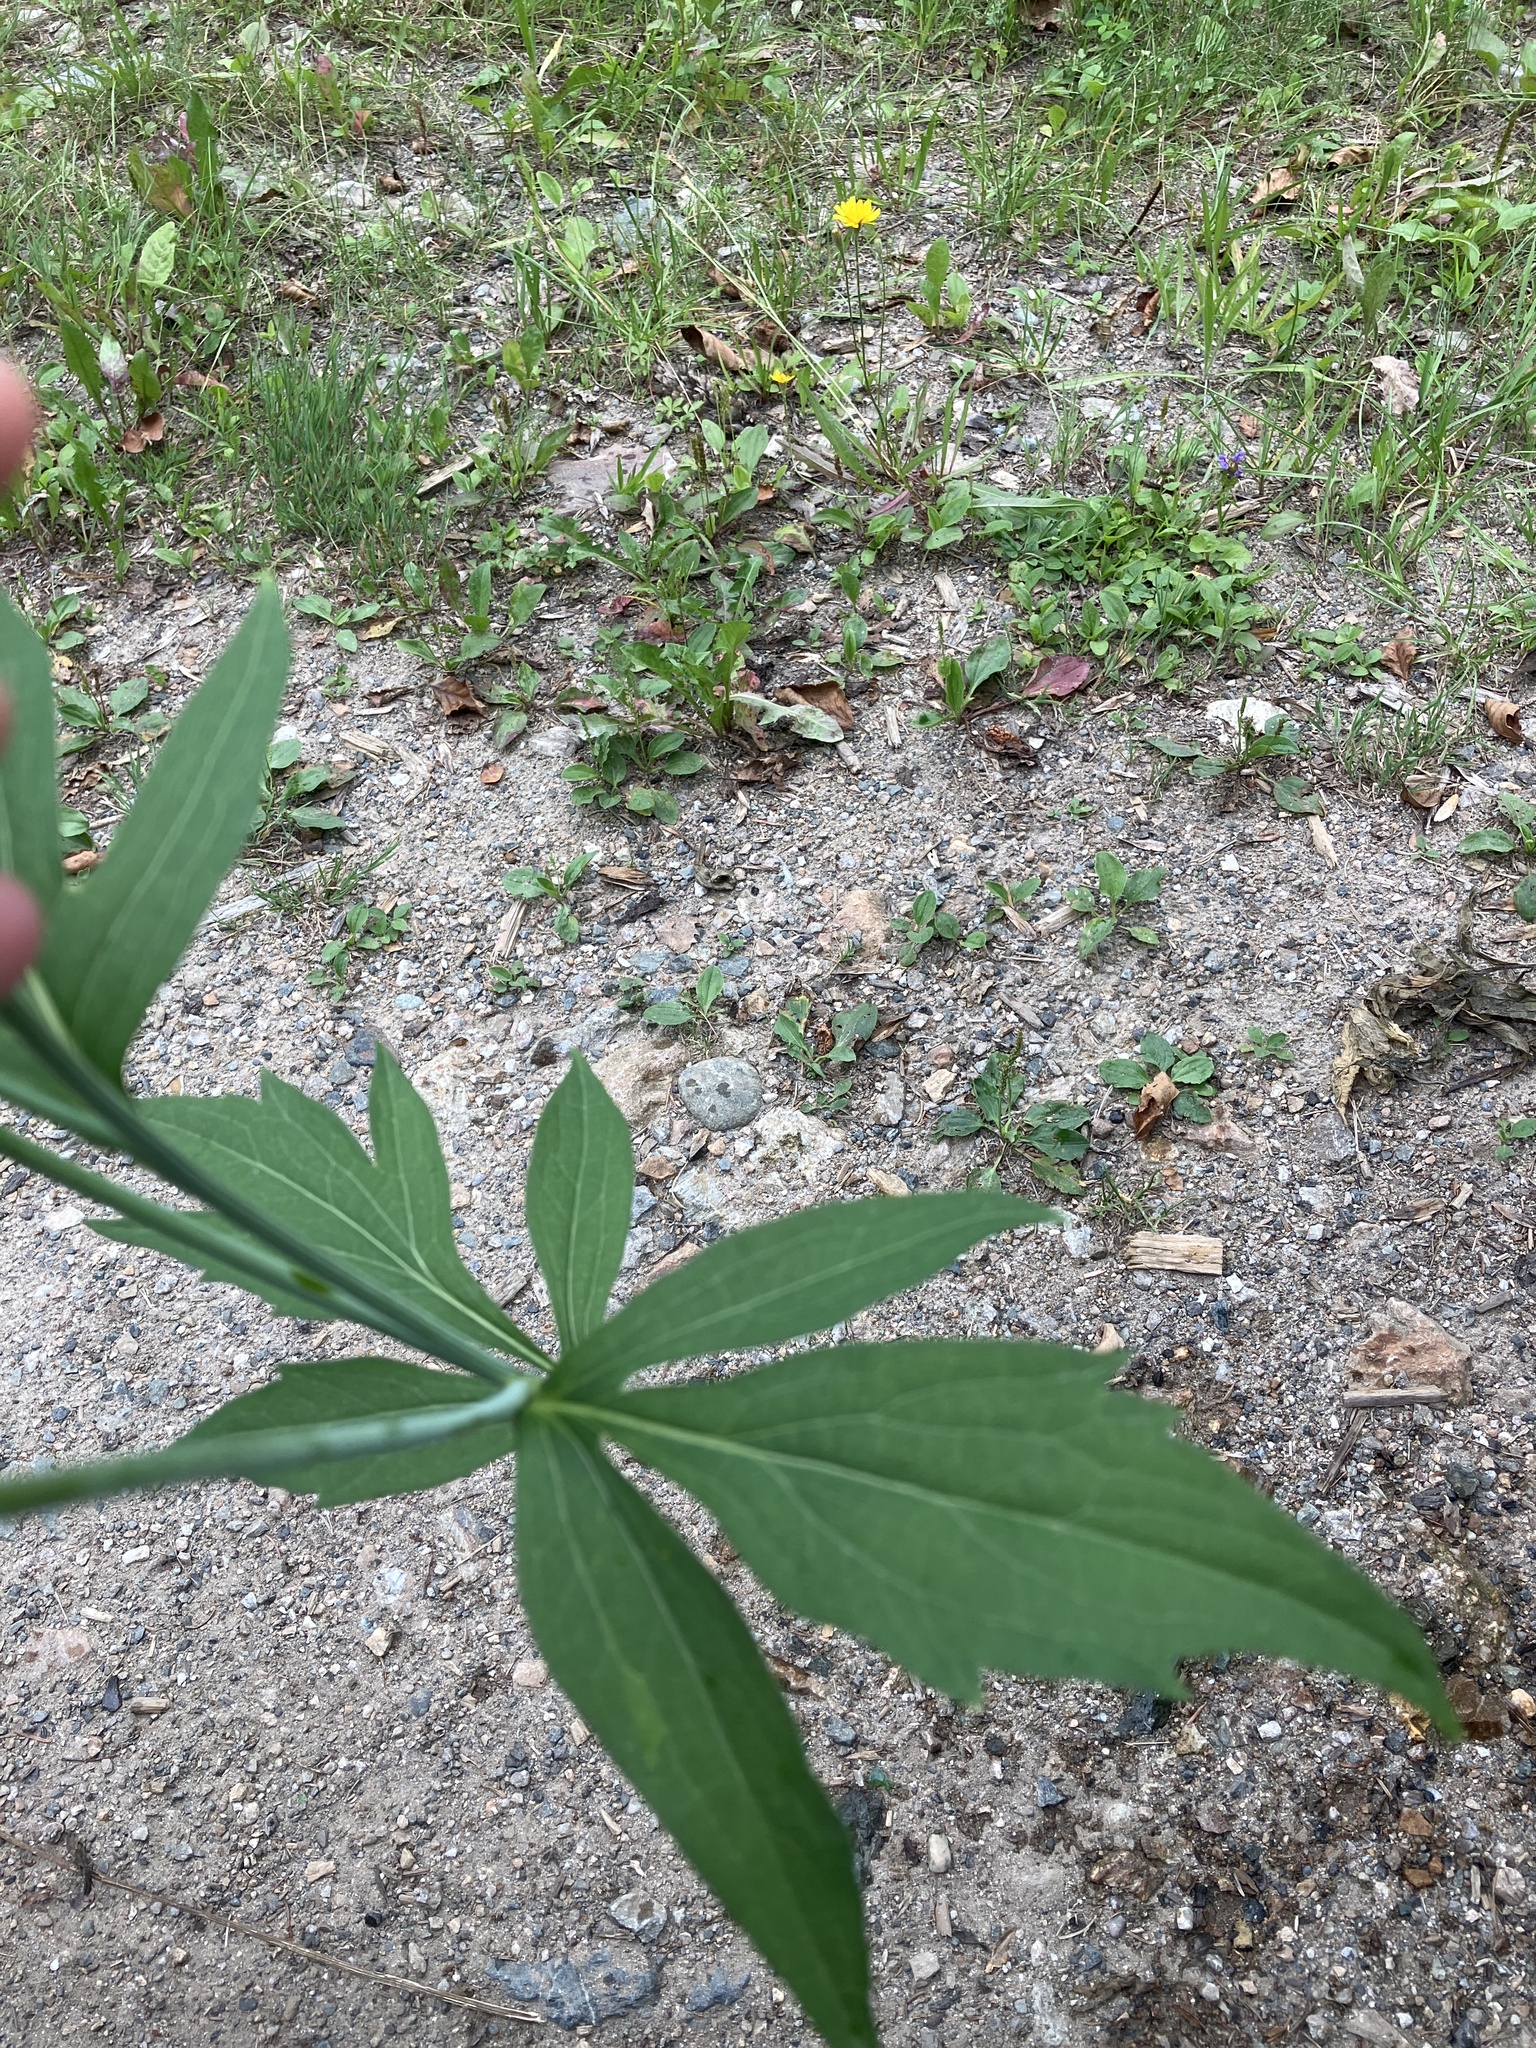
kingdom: Plantae
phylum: Tracheophyta
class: Magnoliopsida
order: Asterales
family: Asteraceae
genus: Rudbeckia
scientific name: Rudbeckia laciniata
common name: Coneflower
